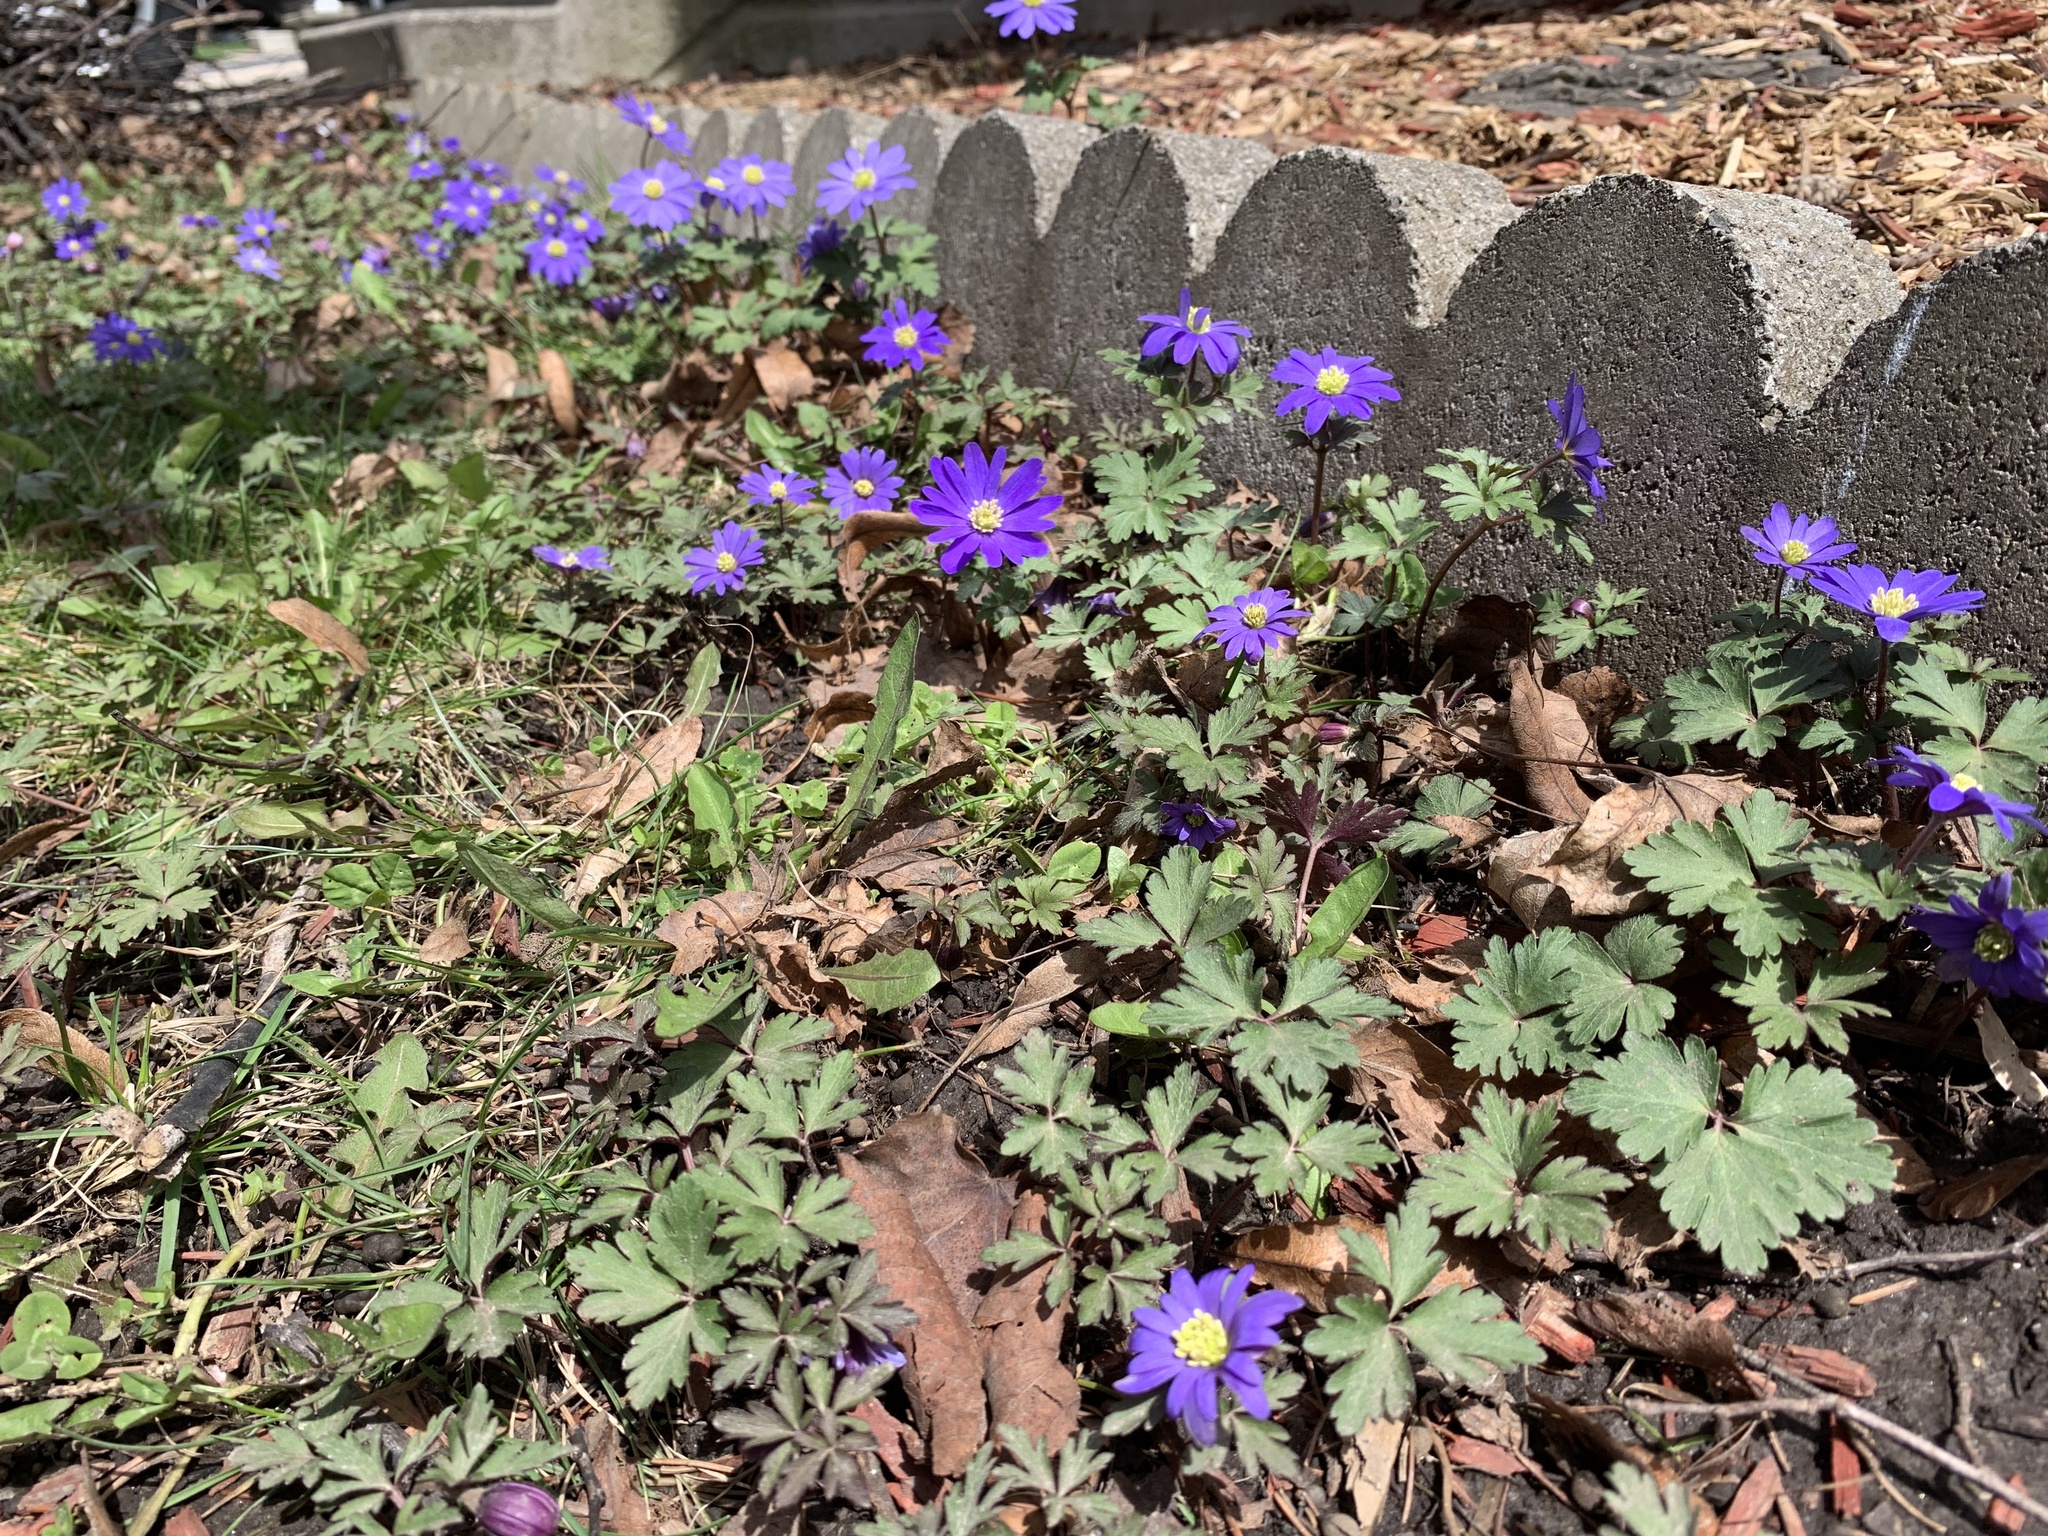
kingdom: Plantae
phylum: Tracheophyta
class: Magnoliopsida
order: Ranunculales
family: Ranunculaceae
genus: Anemone
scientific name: Anemone blanda
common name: Balkan anemone
